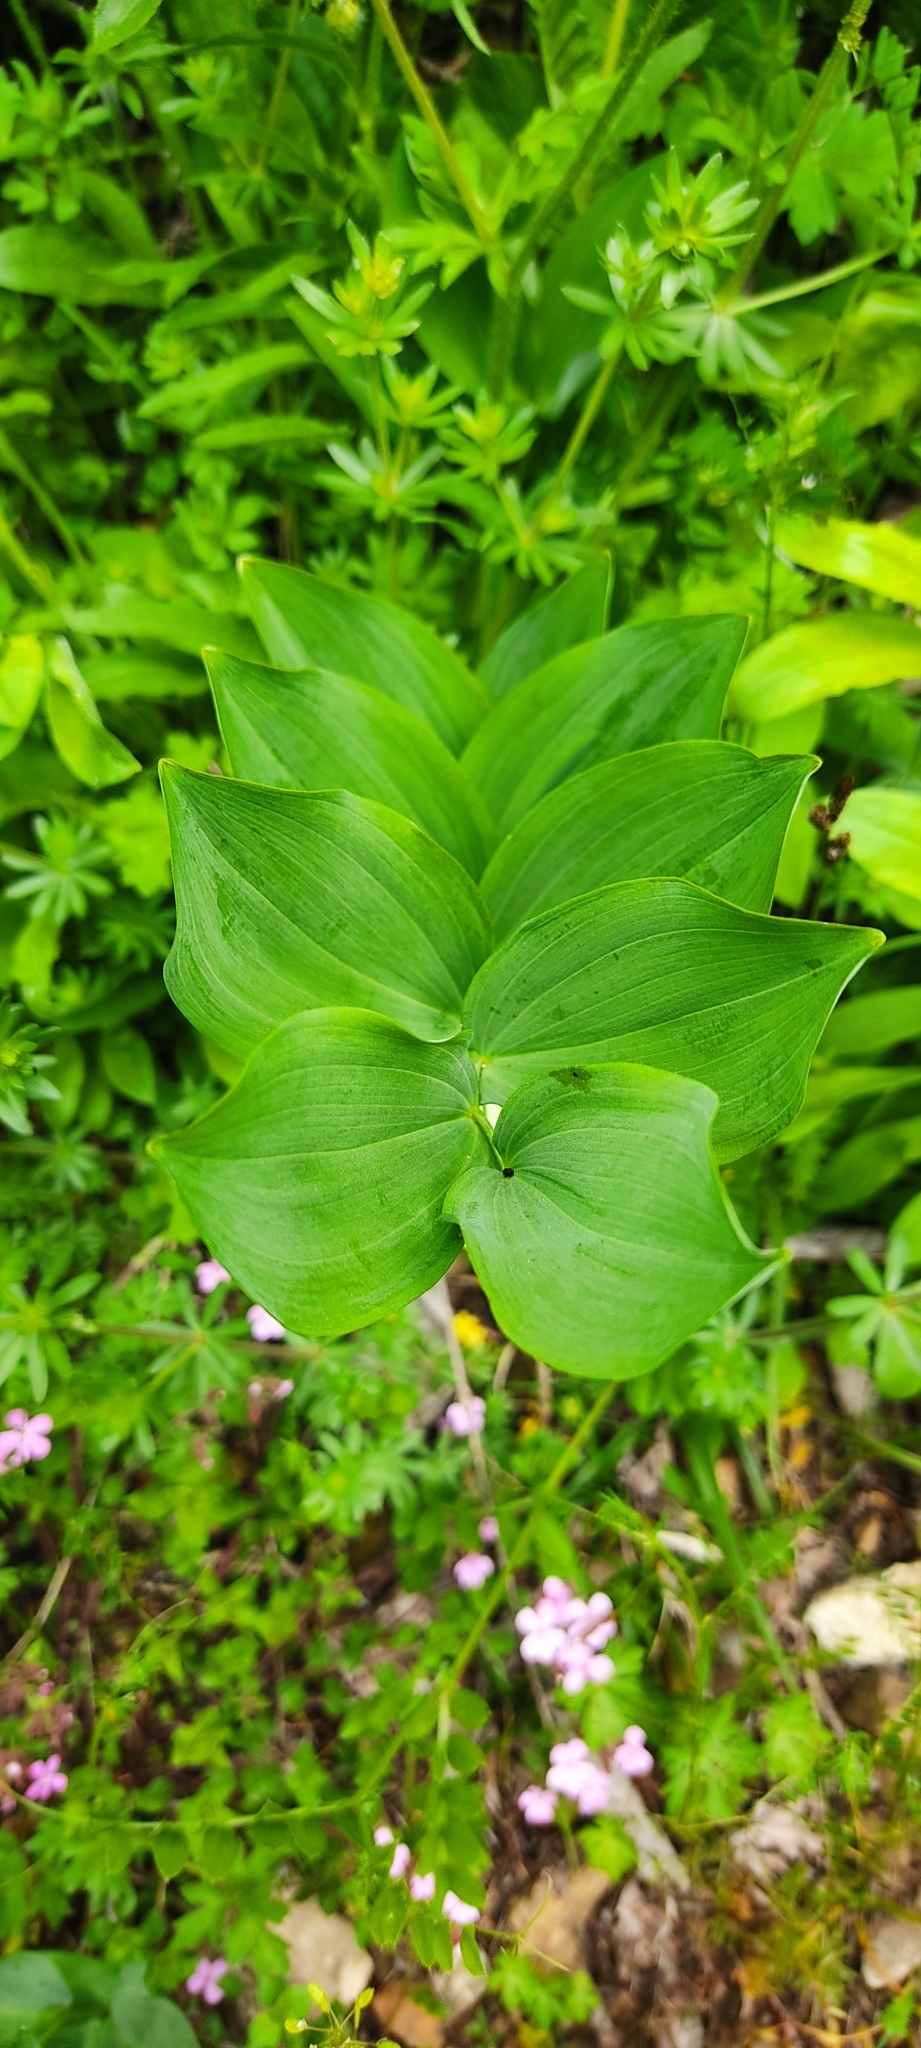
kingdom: Plantae
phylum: Tracheophyta
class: Liliopsida
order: Asparagales
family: Asparagaceae
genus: Polygonatum
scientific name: Polygonatum odoratum
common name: Angular solomon's-seal
